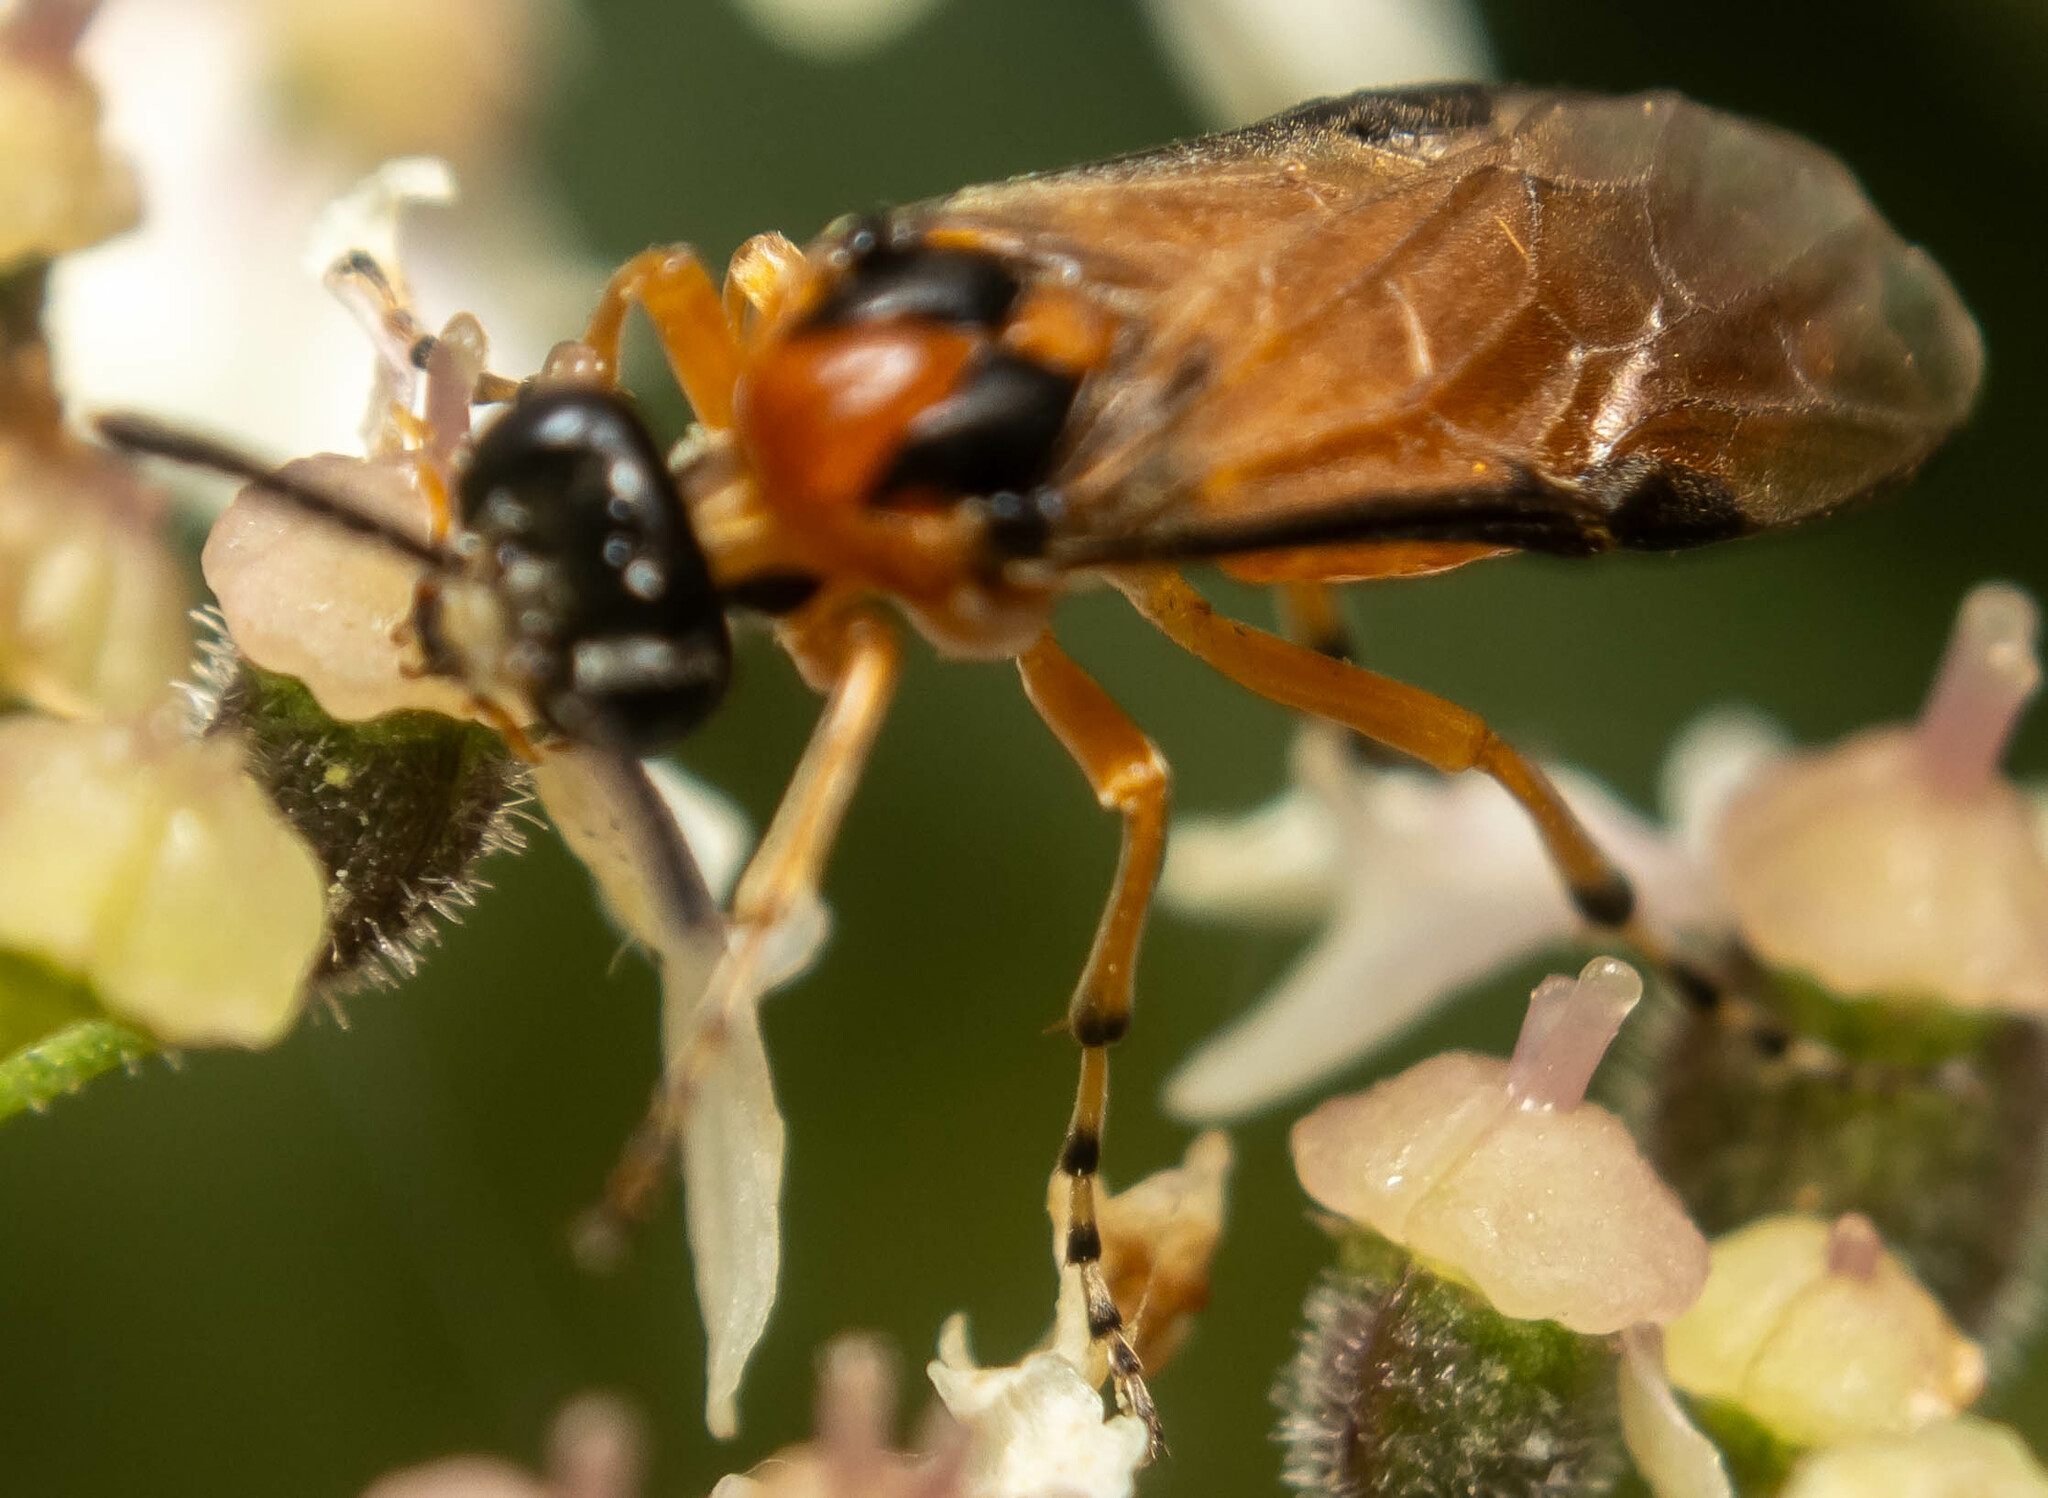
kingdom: Animalia
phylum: Arthropoda
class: Insecta
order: Hymenoptera
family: Tenthredinidae
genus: Athalia
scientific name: Athalia rosae
